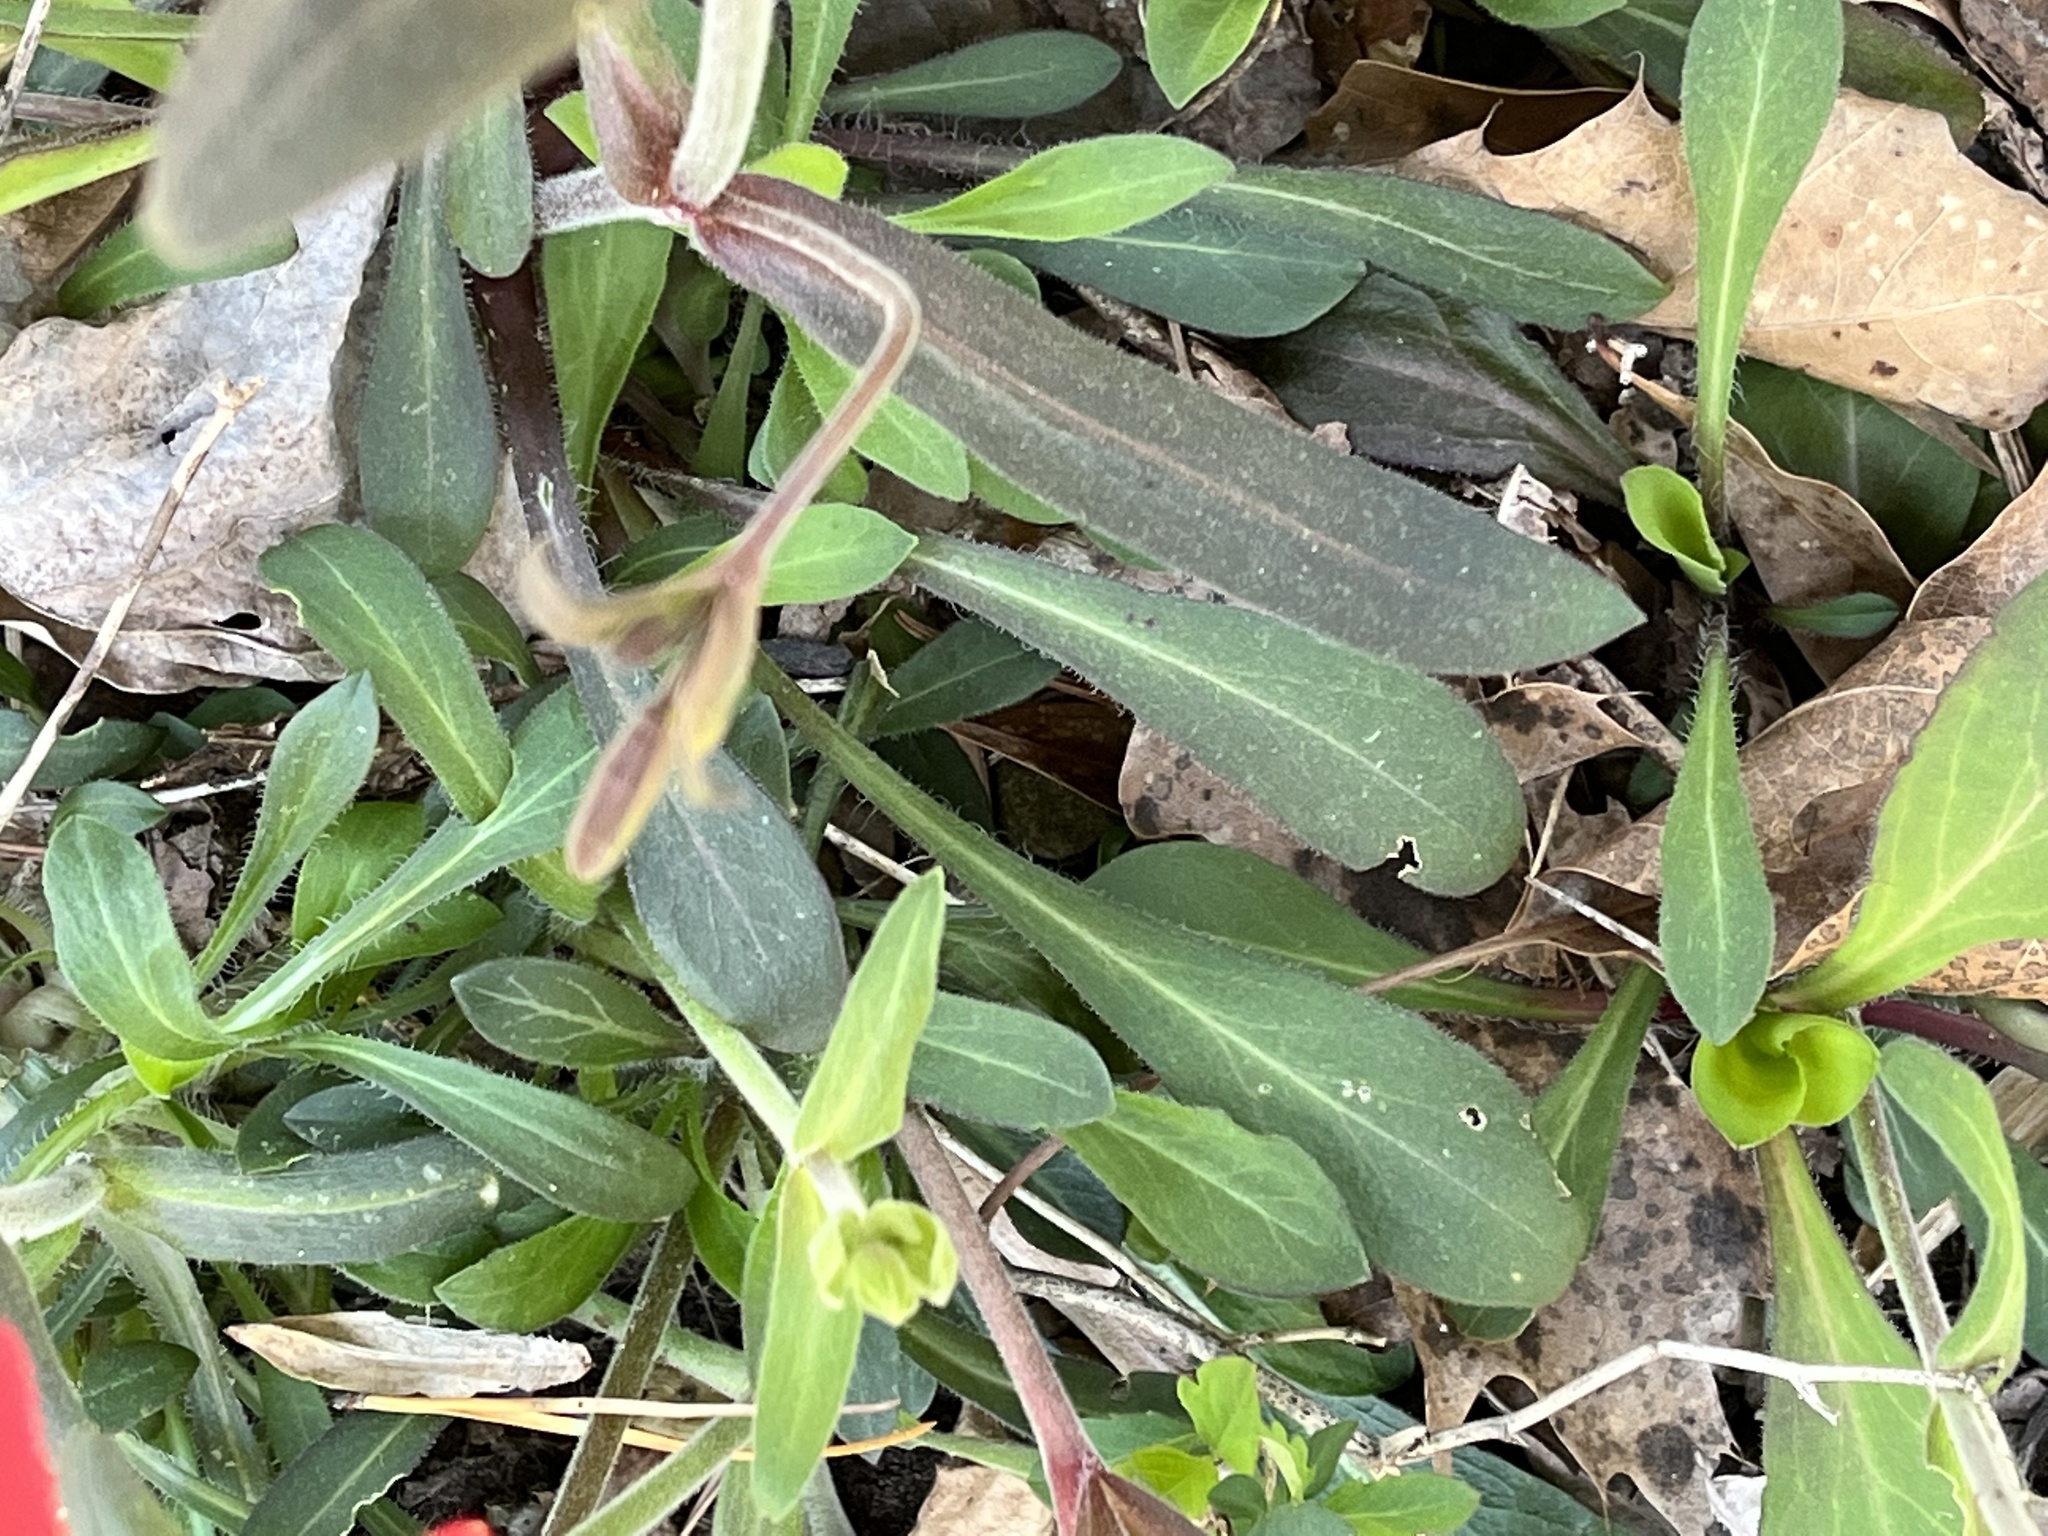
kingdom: Plantae
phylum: Tracheophyta
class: Magnoliopsida
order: Caryophyllales
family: Caryophyllaceae
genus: Silene
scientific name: Silene virginica
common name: Fire-pink
